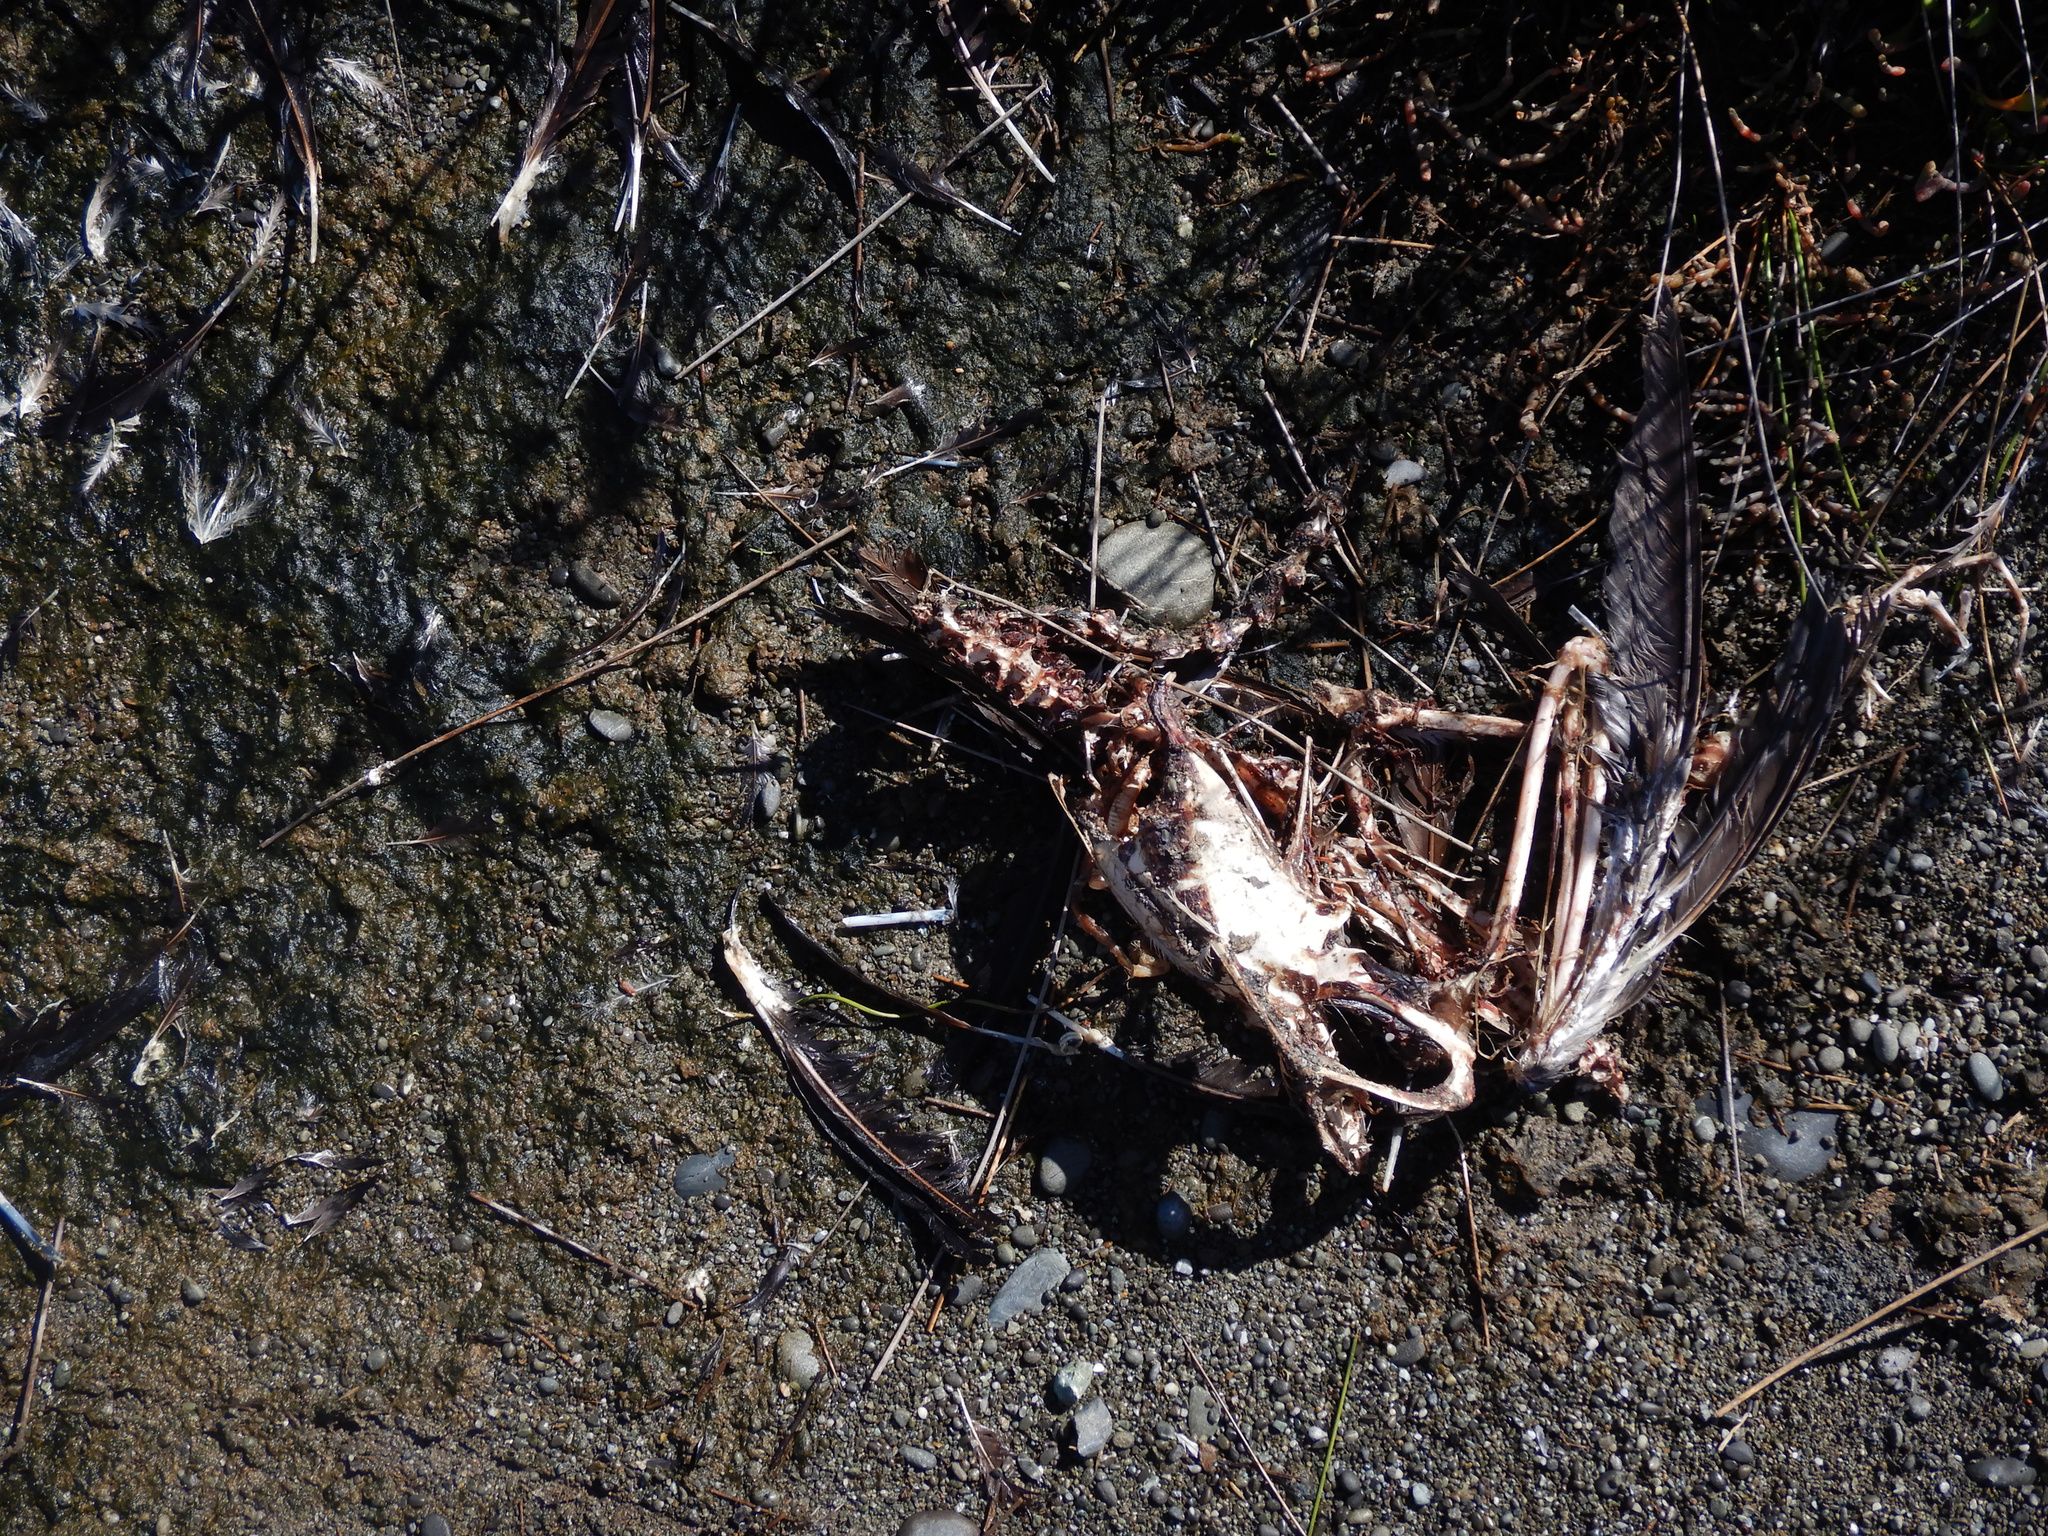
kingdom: Animalia
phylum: Chordata
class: Aves
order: Suliformes
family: Phalacrocoracidae
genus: Phalacrocorax
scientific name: Phalacrocorax punctatus
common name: Spotted shag
